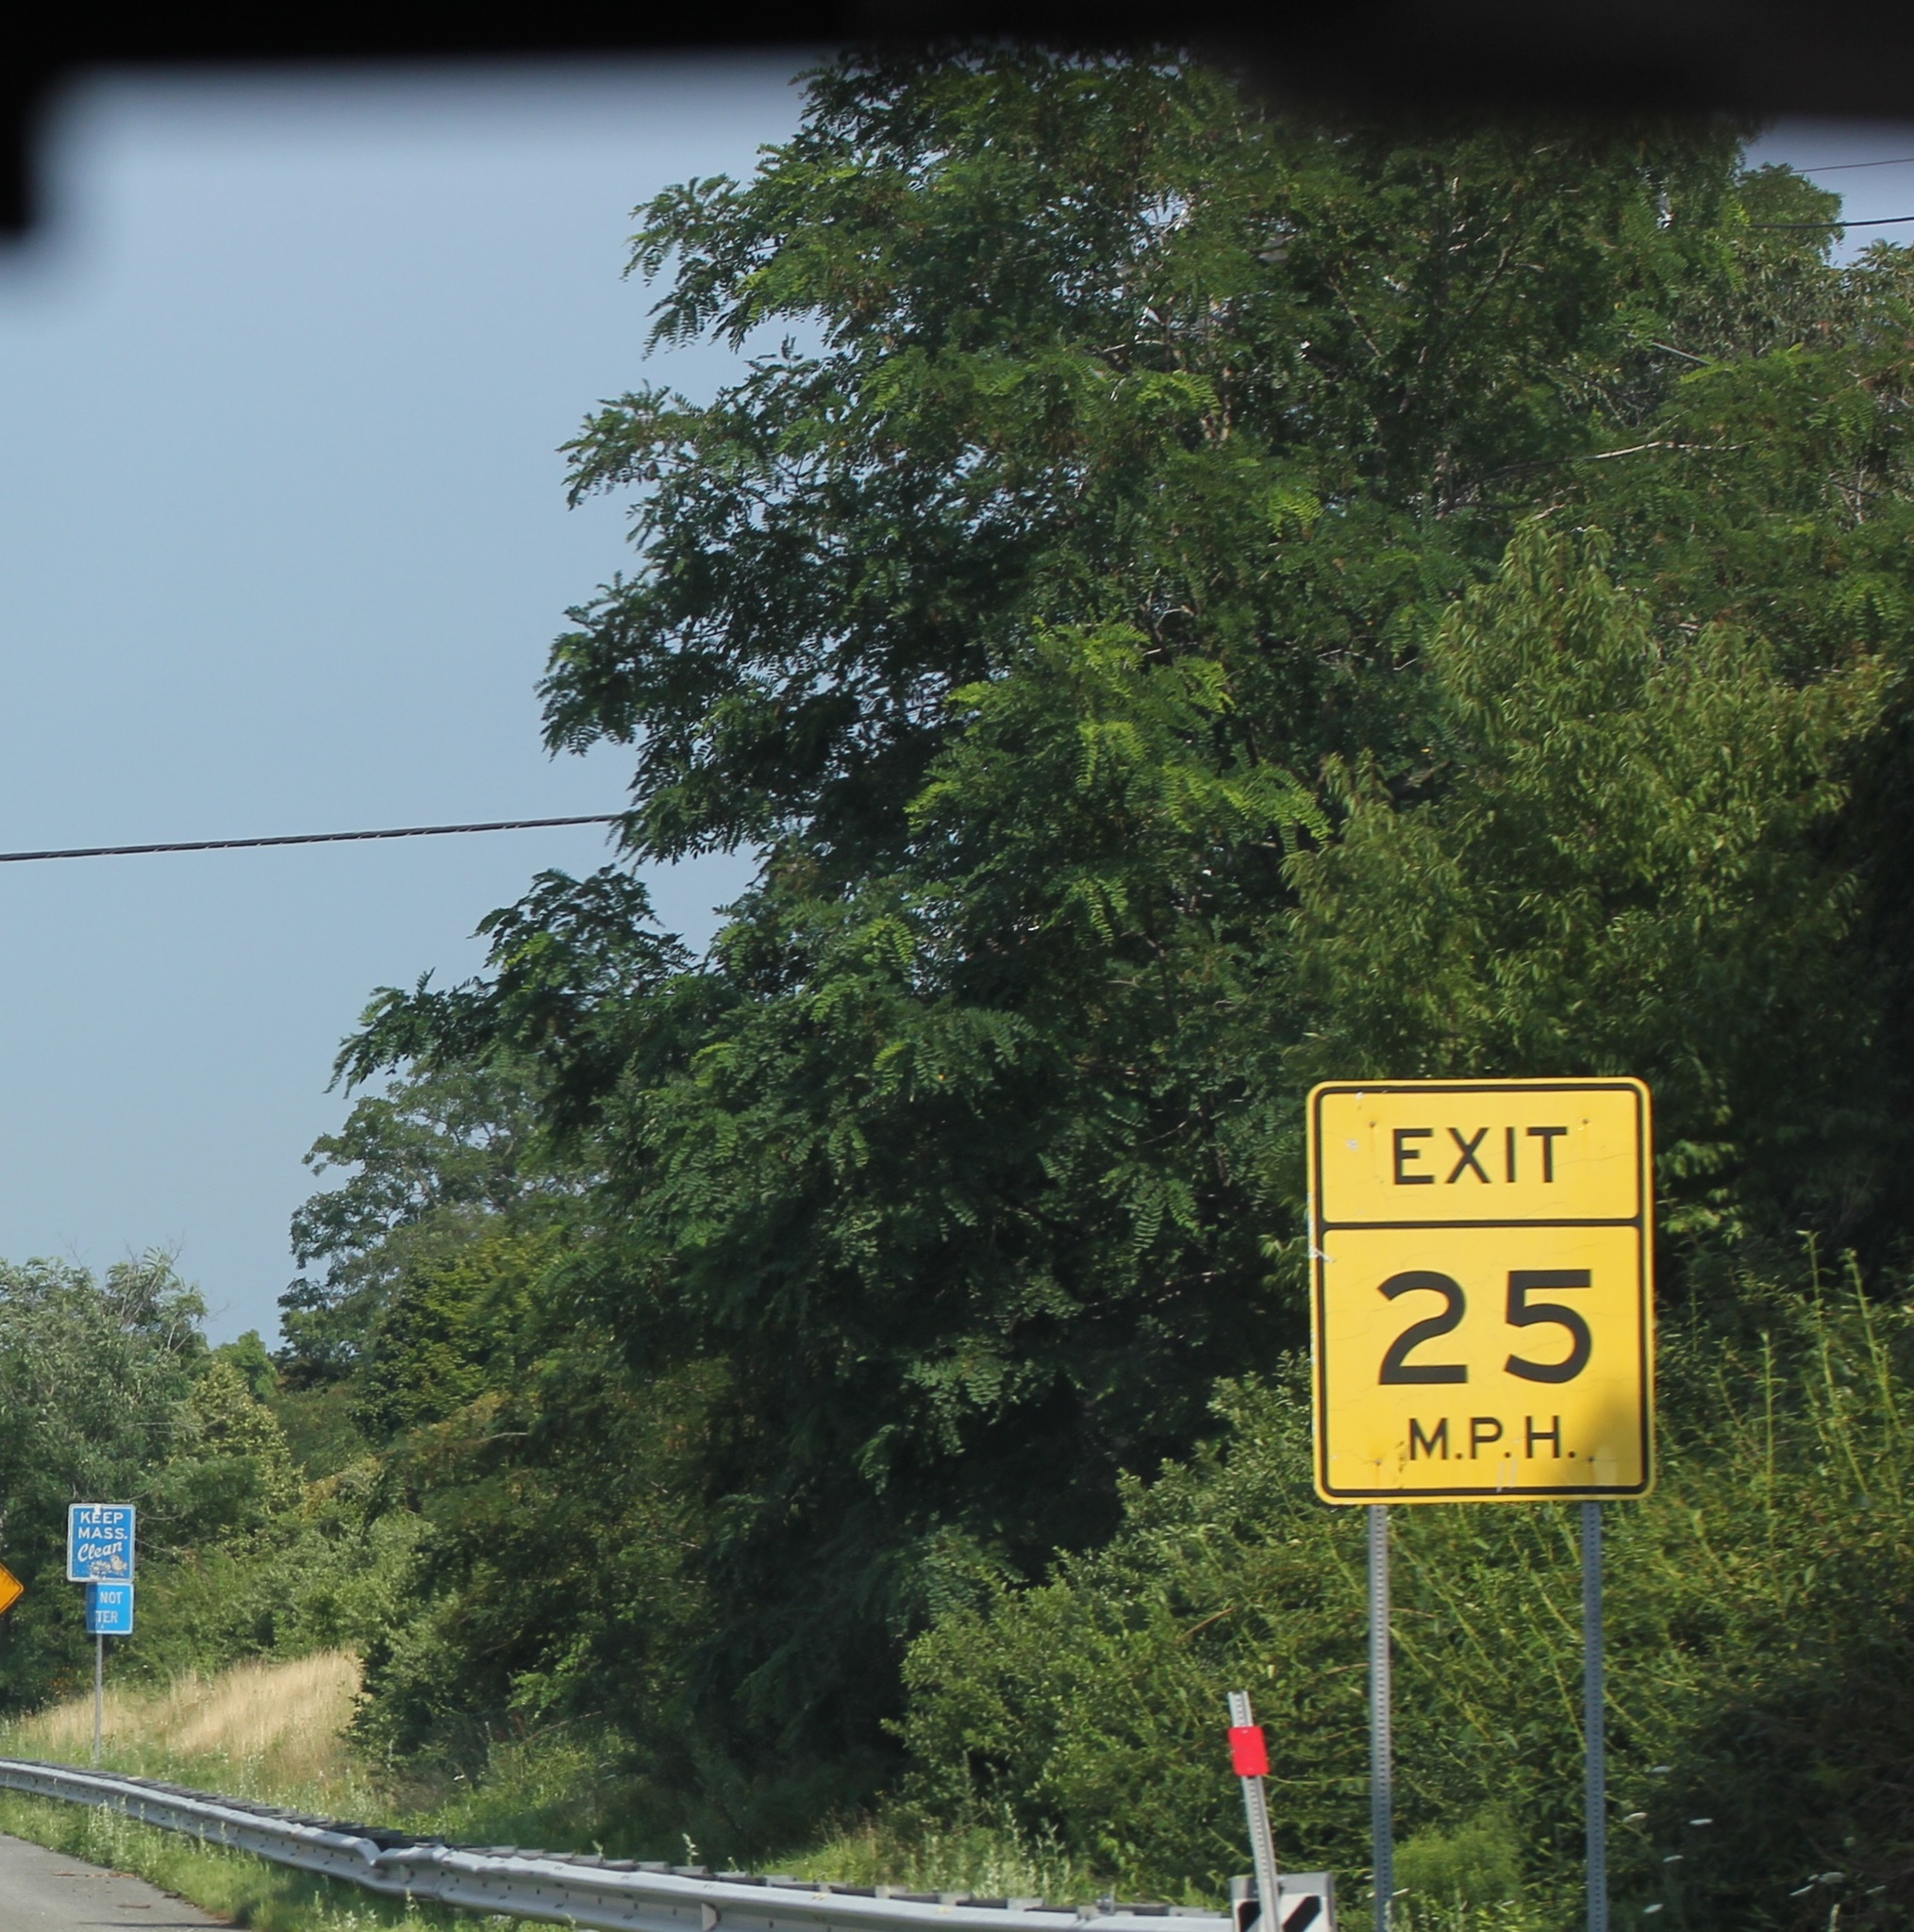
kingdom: Plantae
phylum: Tracheophyta
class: Magnoliopsida
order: Fabales
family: Fabaceae
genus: Robinia
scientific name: Robinia pseudoacacia
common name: Black locust
